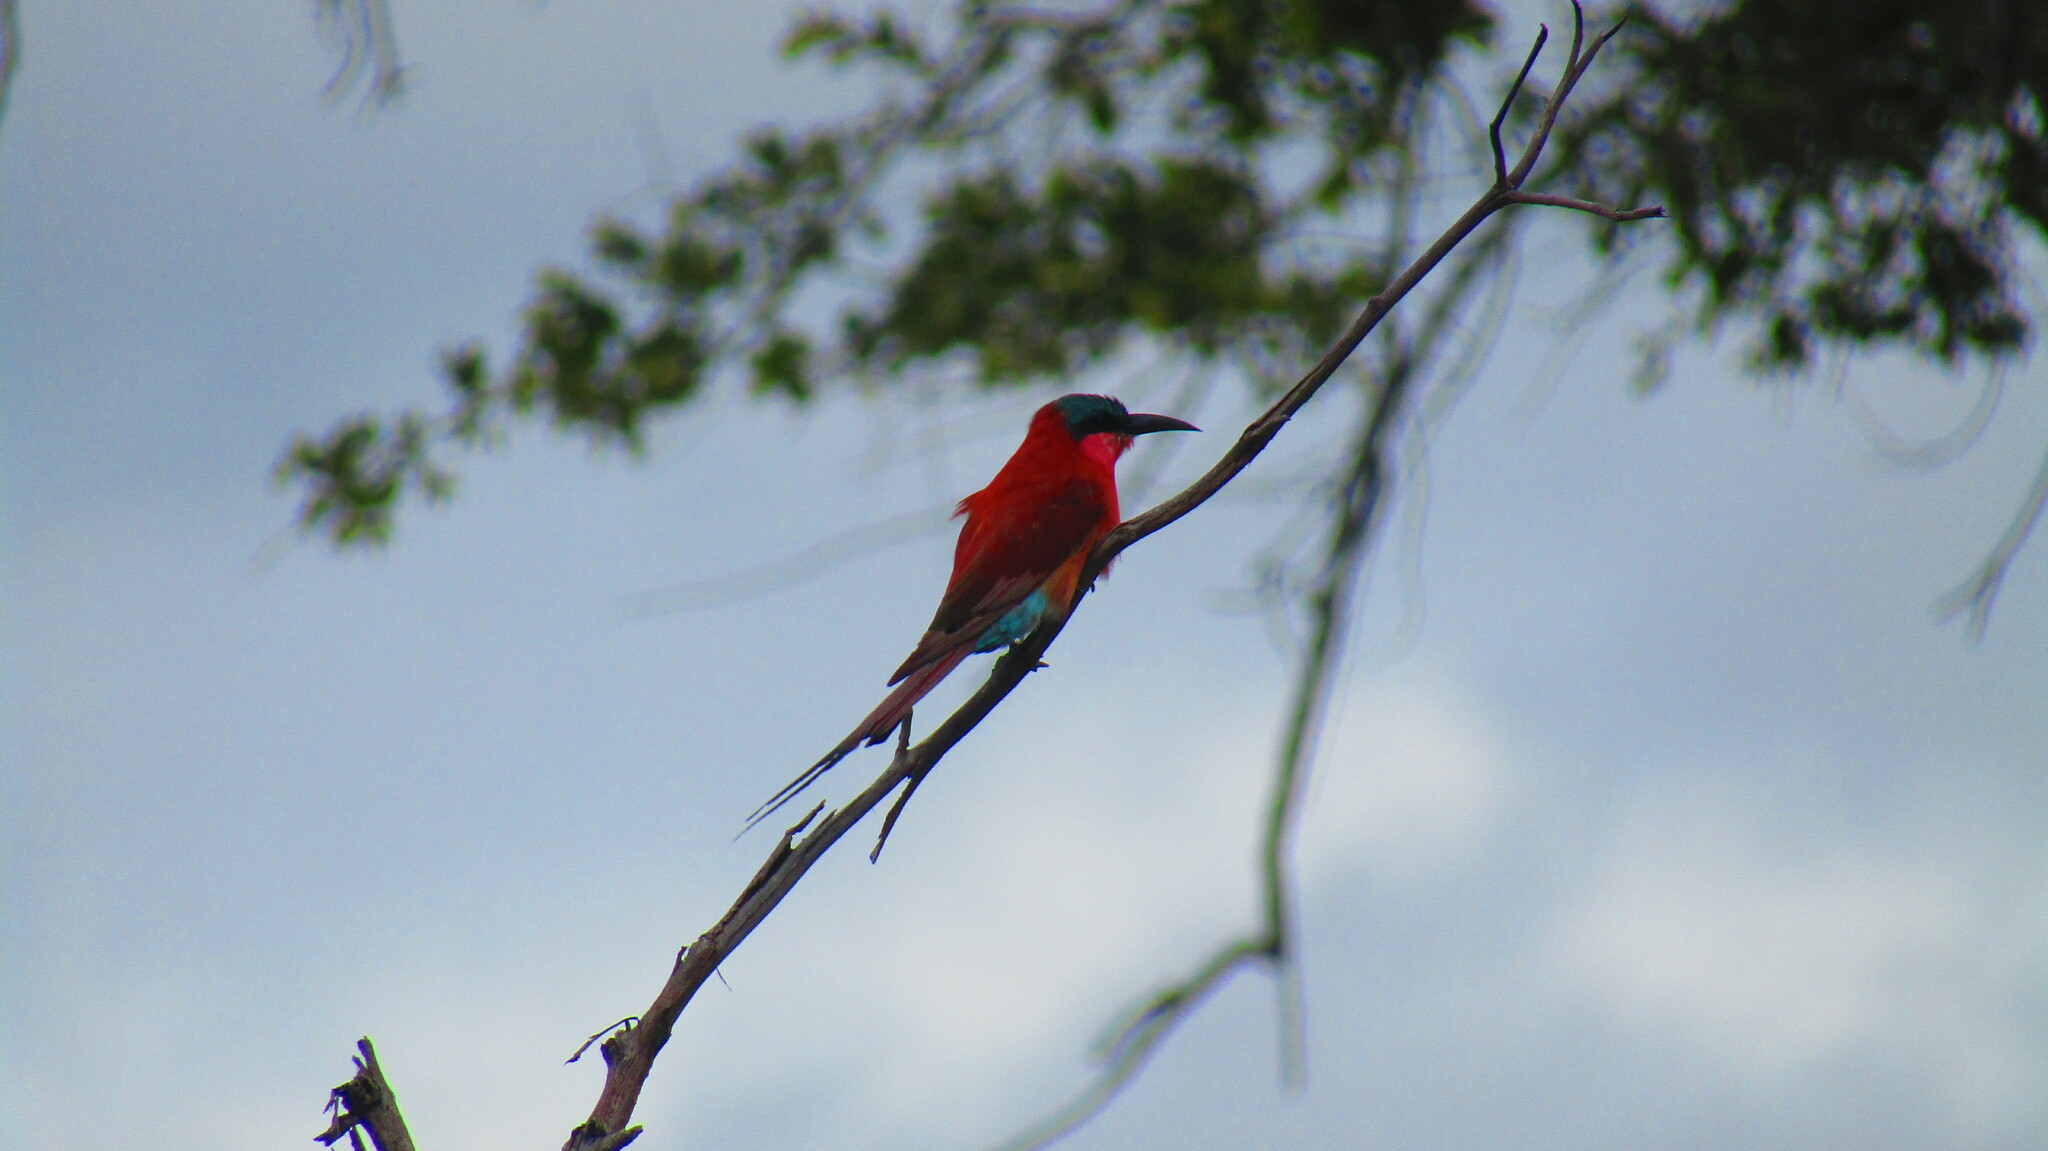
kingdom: Animalia
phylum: Chordata
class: Aves
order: Coraciiformes
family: Meropidae
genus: Merops
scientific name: Merops nubicoides
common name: Southern carmine bee-eater
